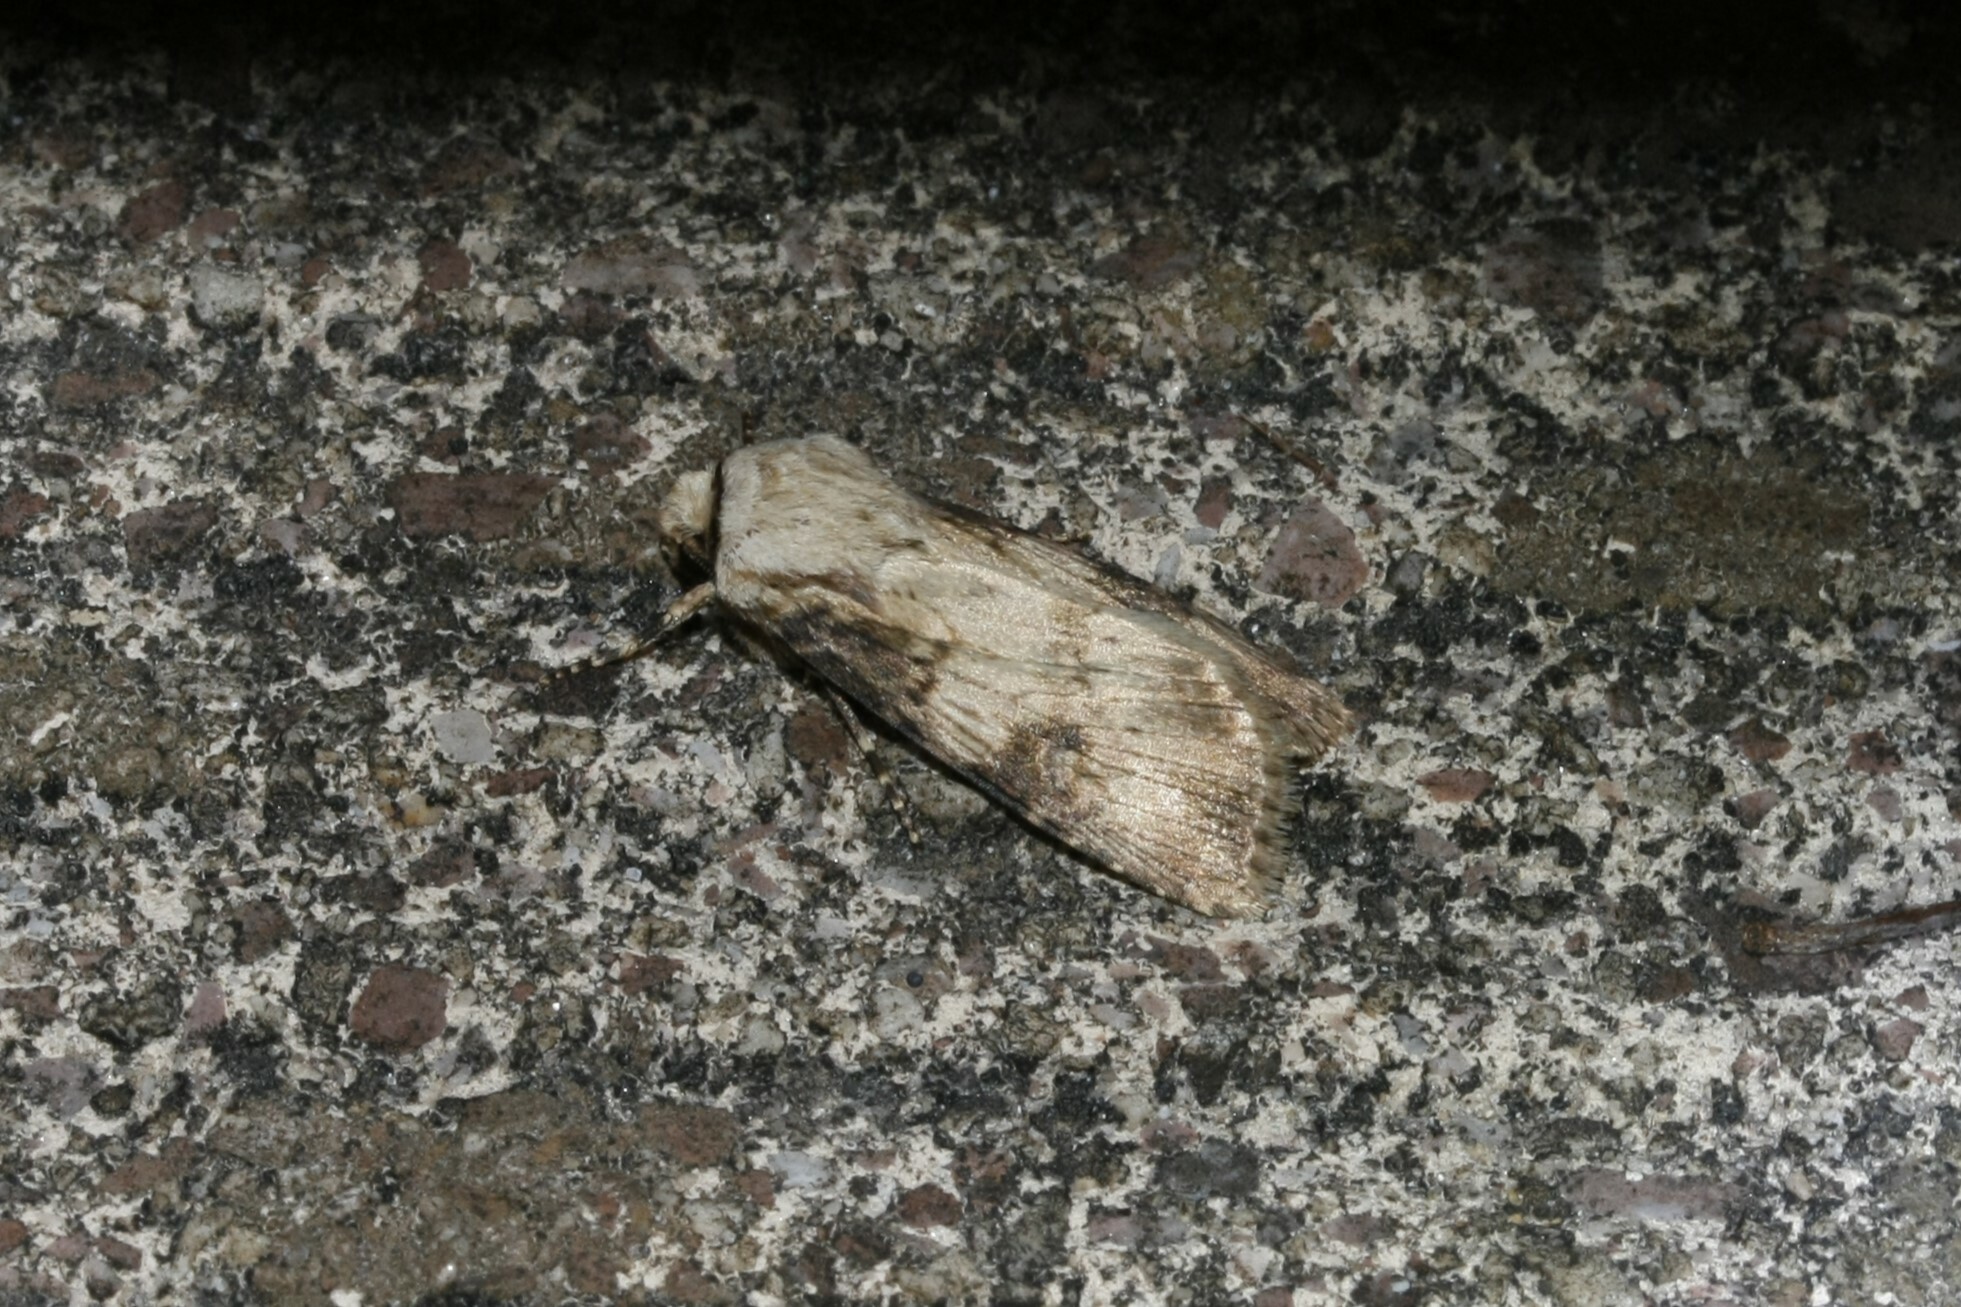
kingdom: Animalia
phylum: Arthropoda
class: Insecta
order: Lepidoptera
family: Noctuidae
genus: Agrotis
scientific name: Agrotis puta
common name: Shuttle-shaped dart
